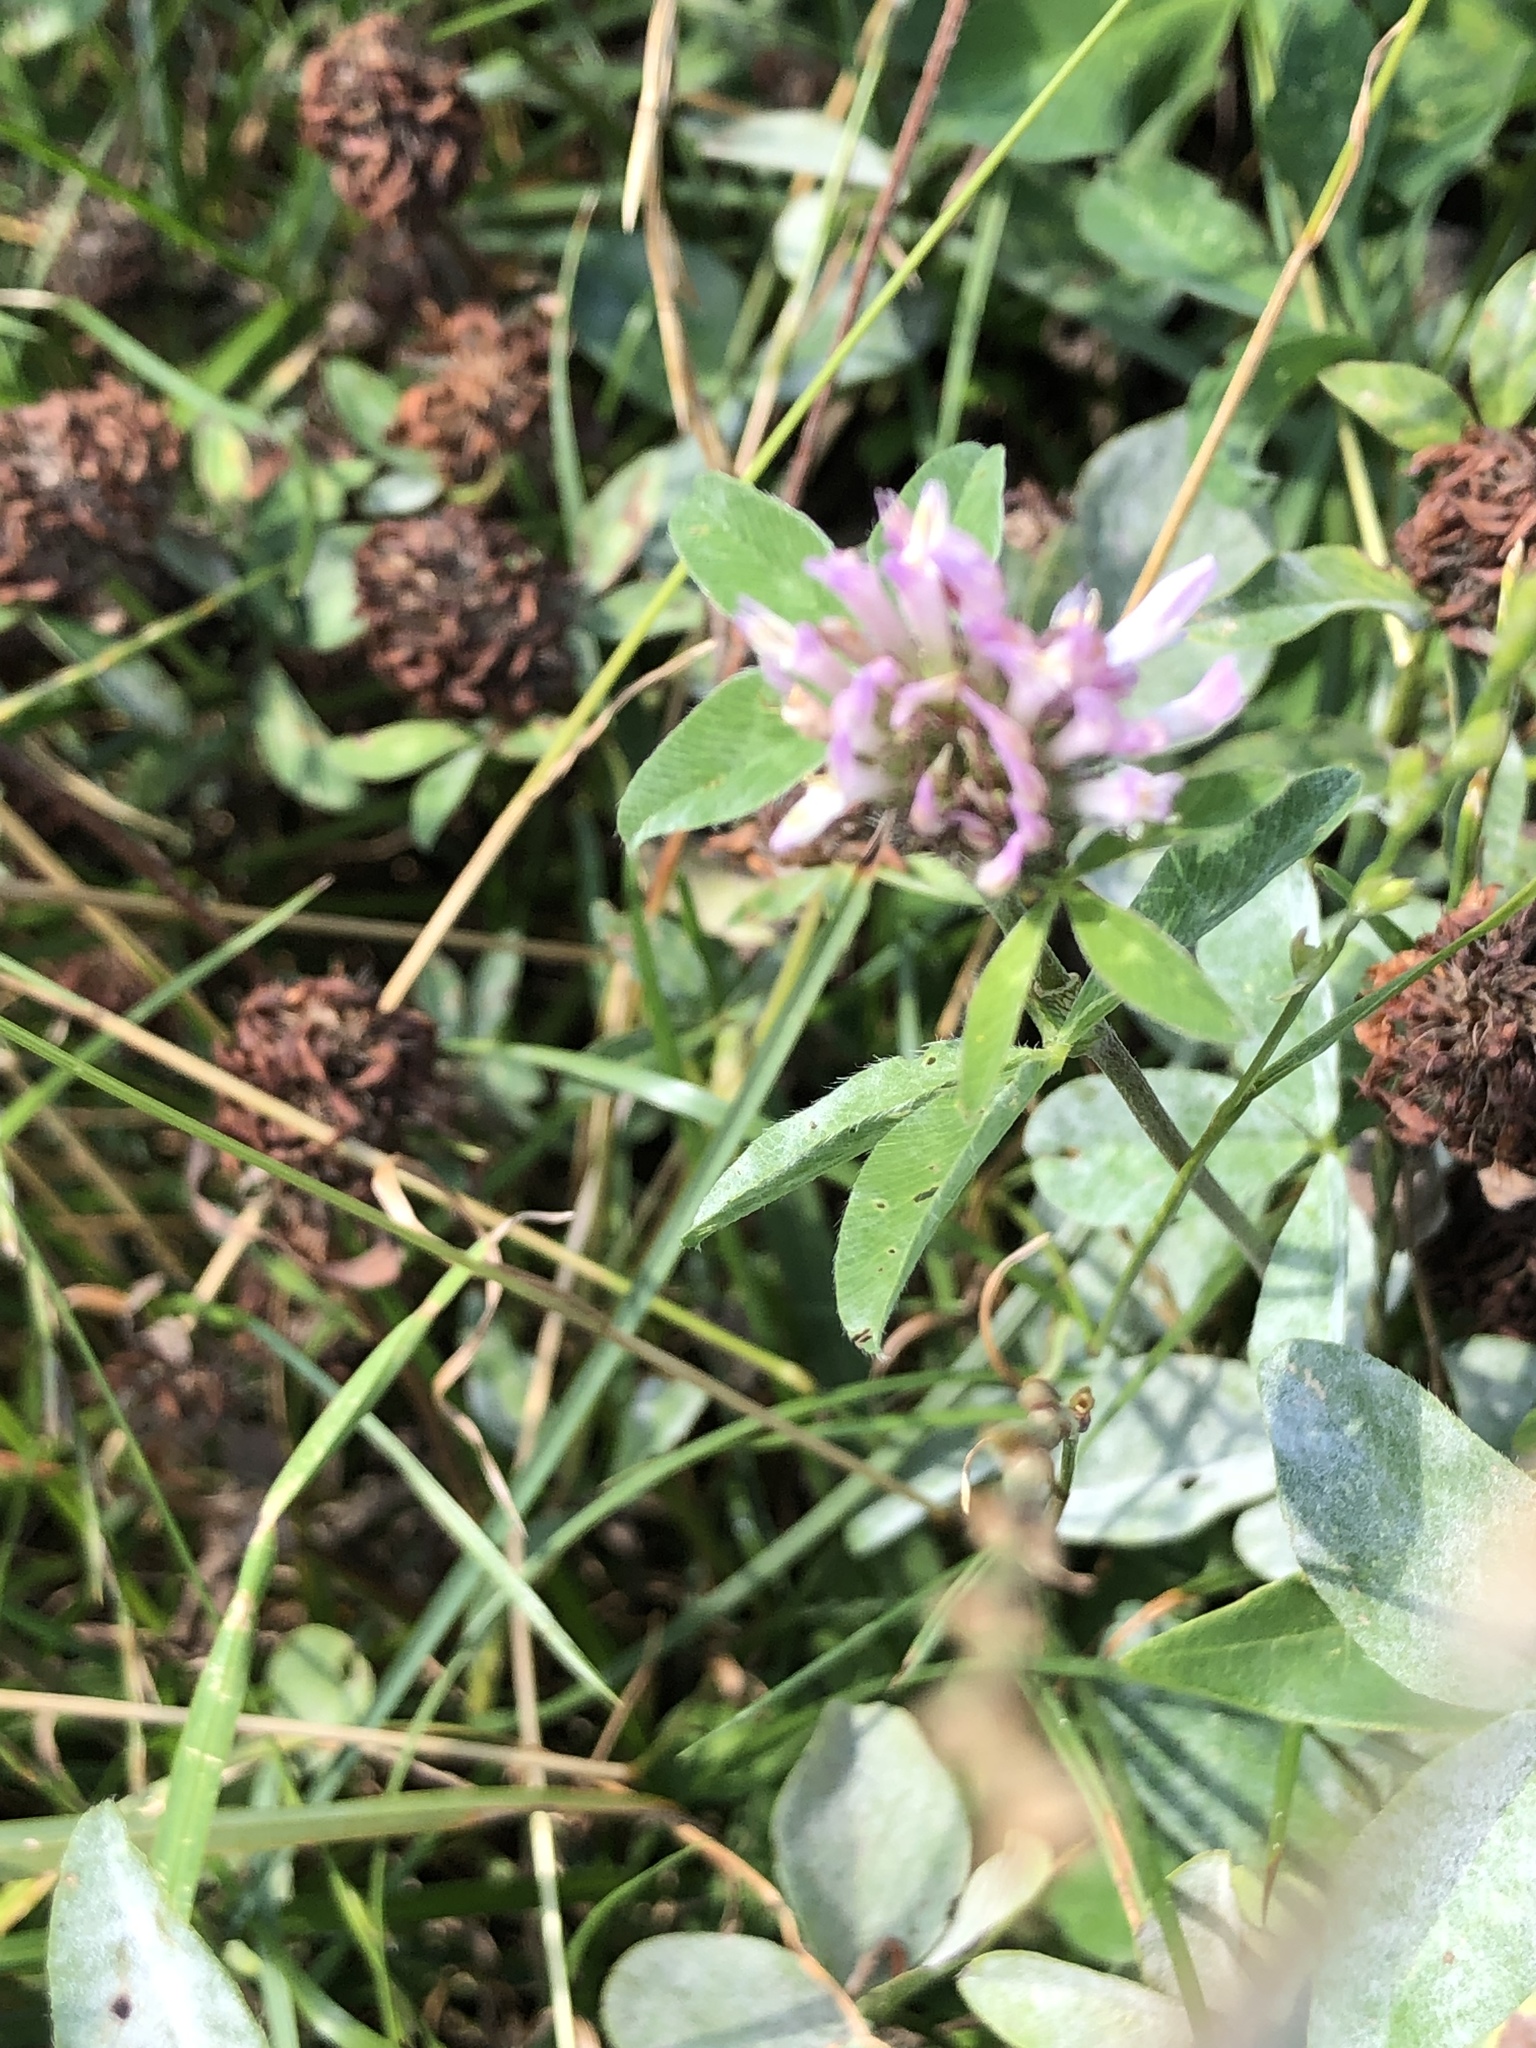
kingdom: Plantae
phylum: Tracheophyta
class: Magnoliopsida
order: Fabales
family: Fabaceae
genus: Trifolium
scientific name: Trifolium pratense
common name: Red clover
